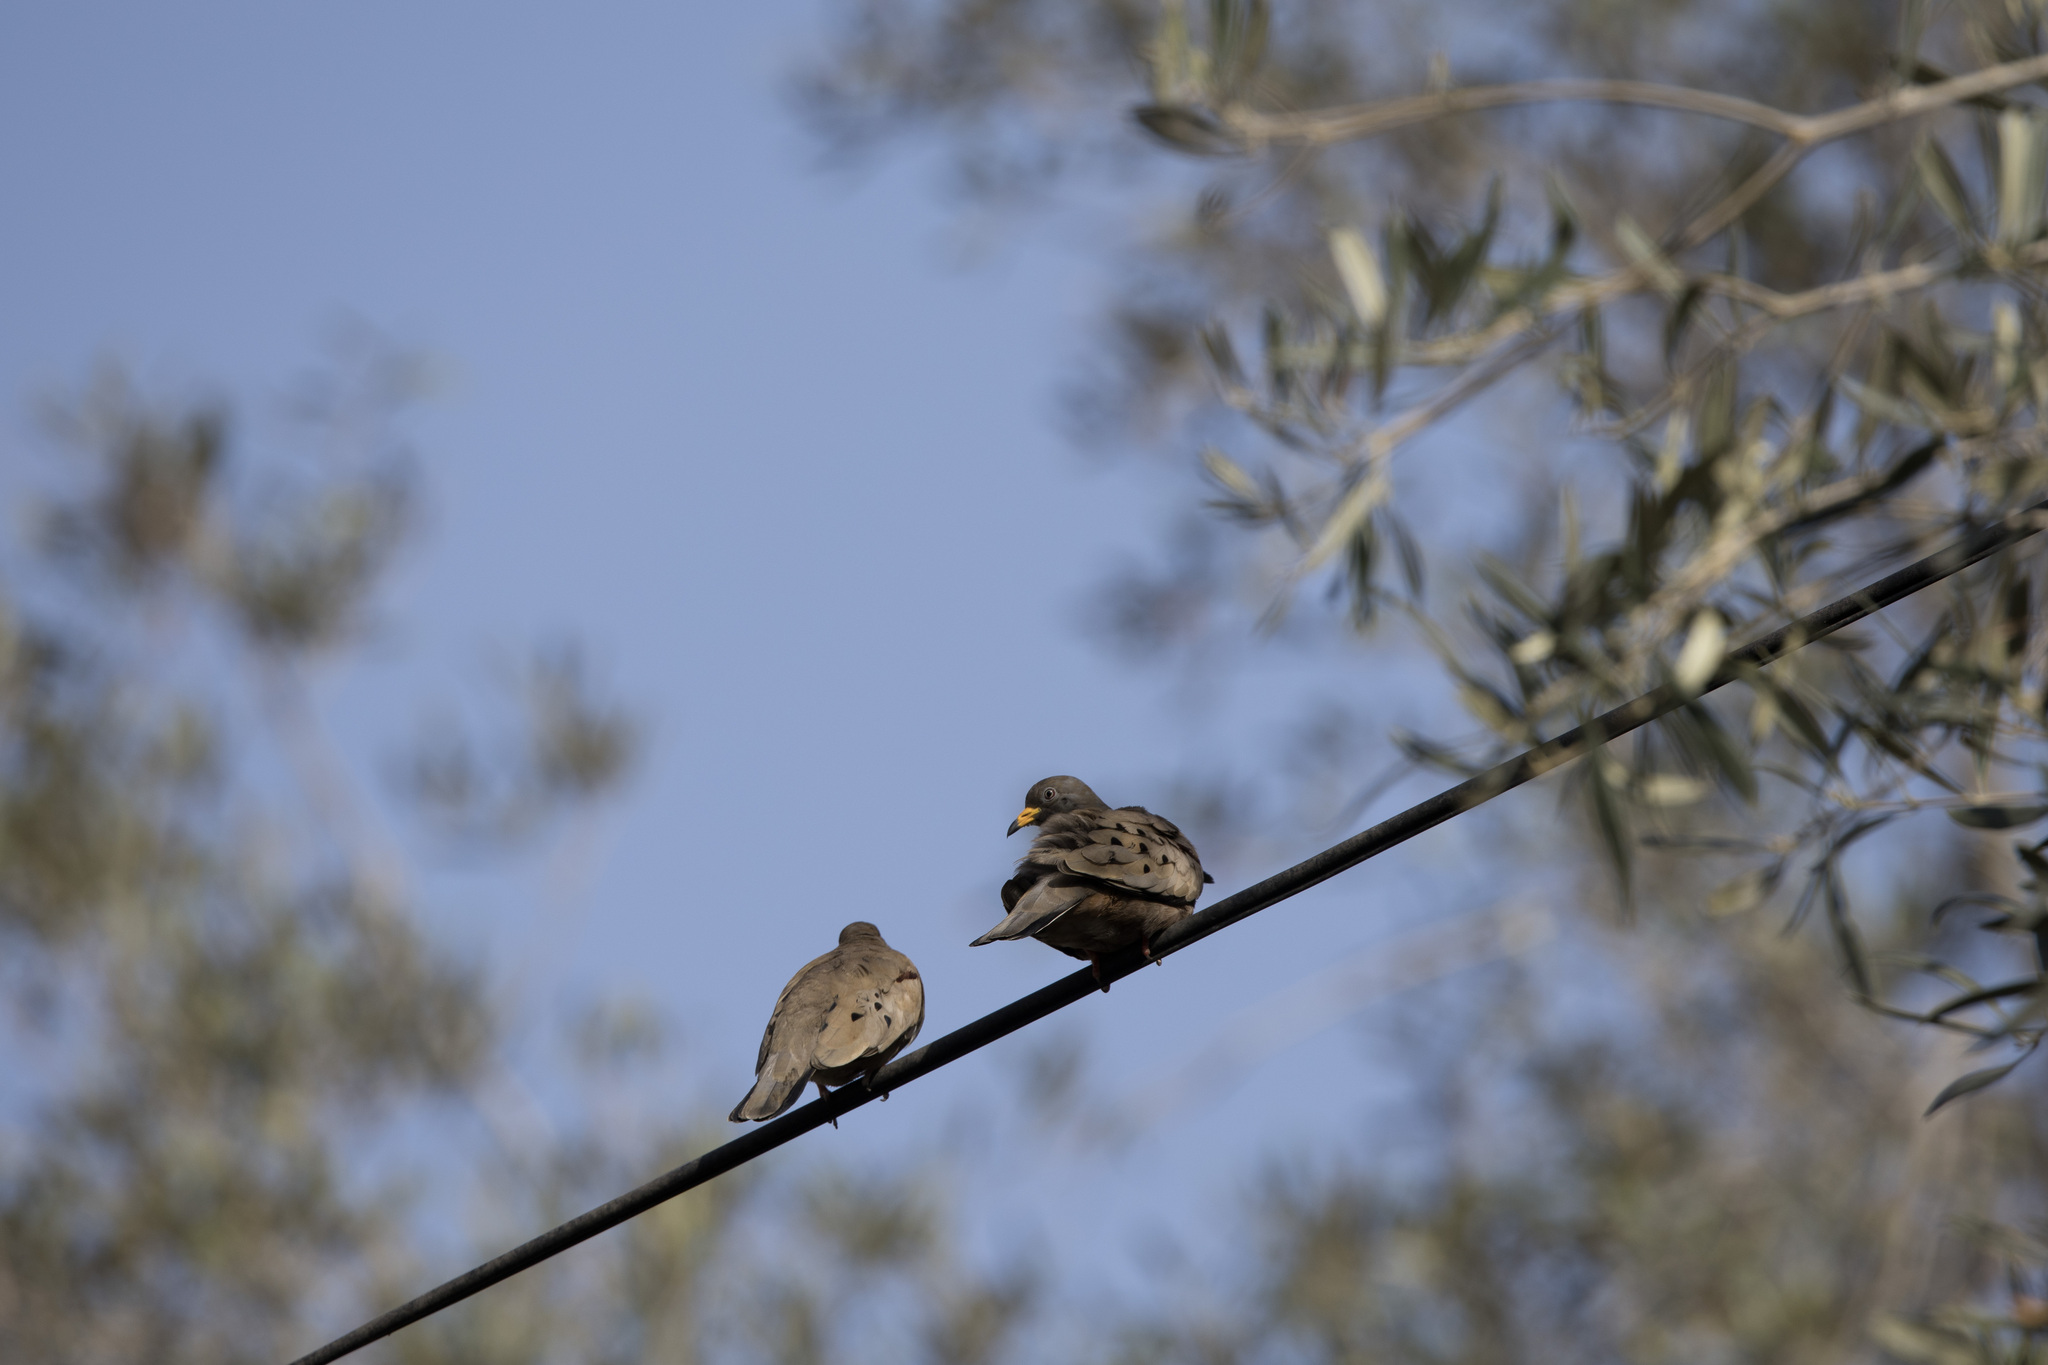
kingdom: Animalia
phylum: Chordata
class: Aves
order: Columbiformes
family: Columbidae
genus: Columbina
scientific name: Columbina cruziana
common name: Croaking ground dove
